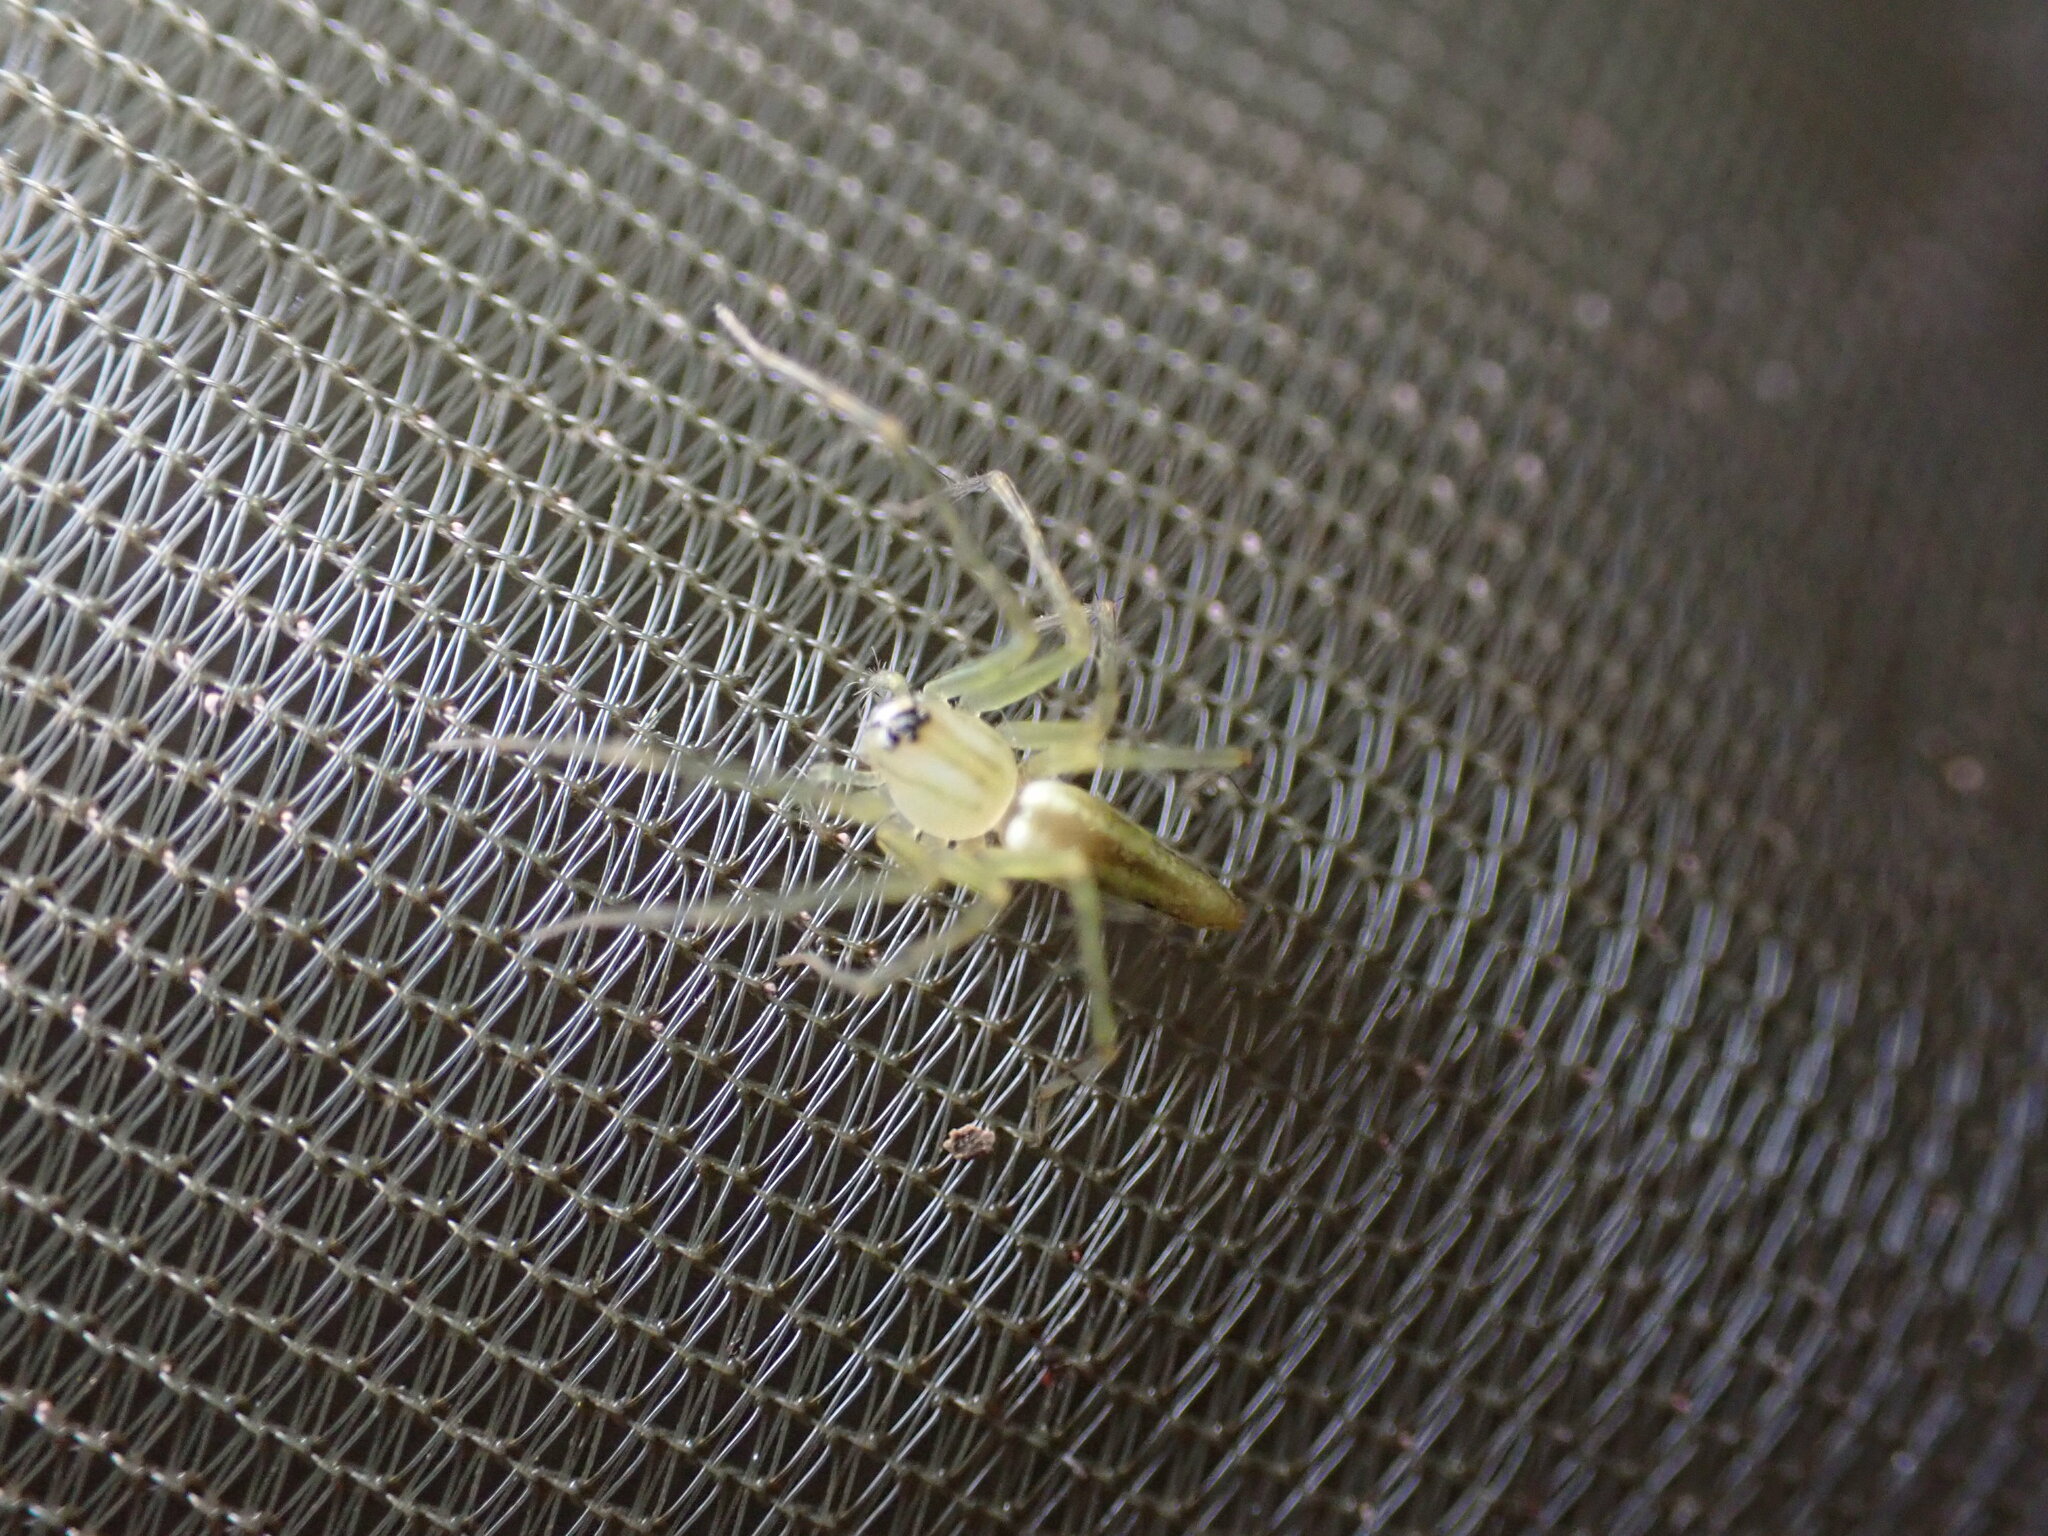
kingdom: Animalia
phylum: Arthropoda
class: Arachnida
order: Araneae
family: Oxyopidae
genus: Oxyopes
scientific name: Oxyopes macilentus
